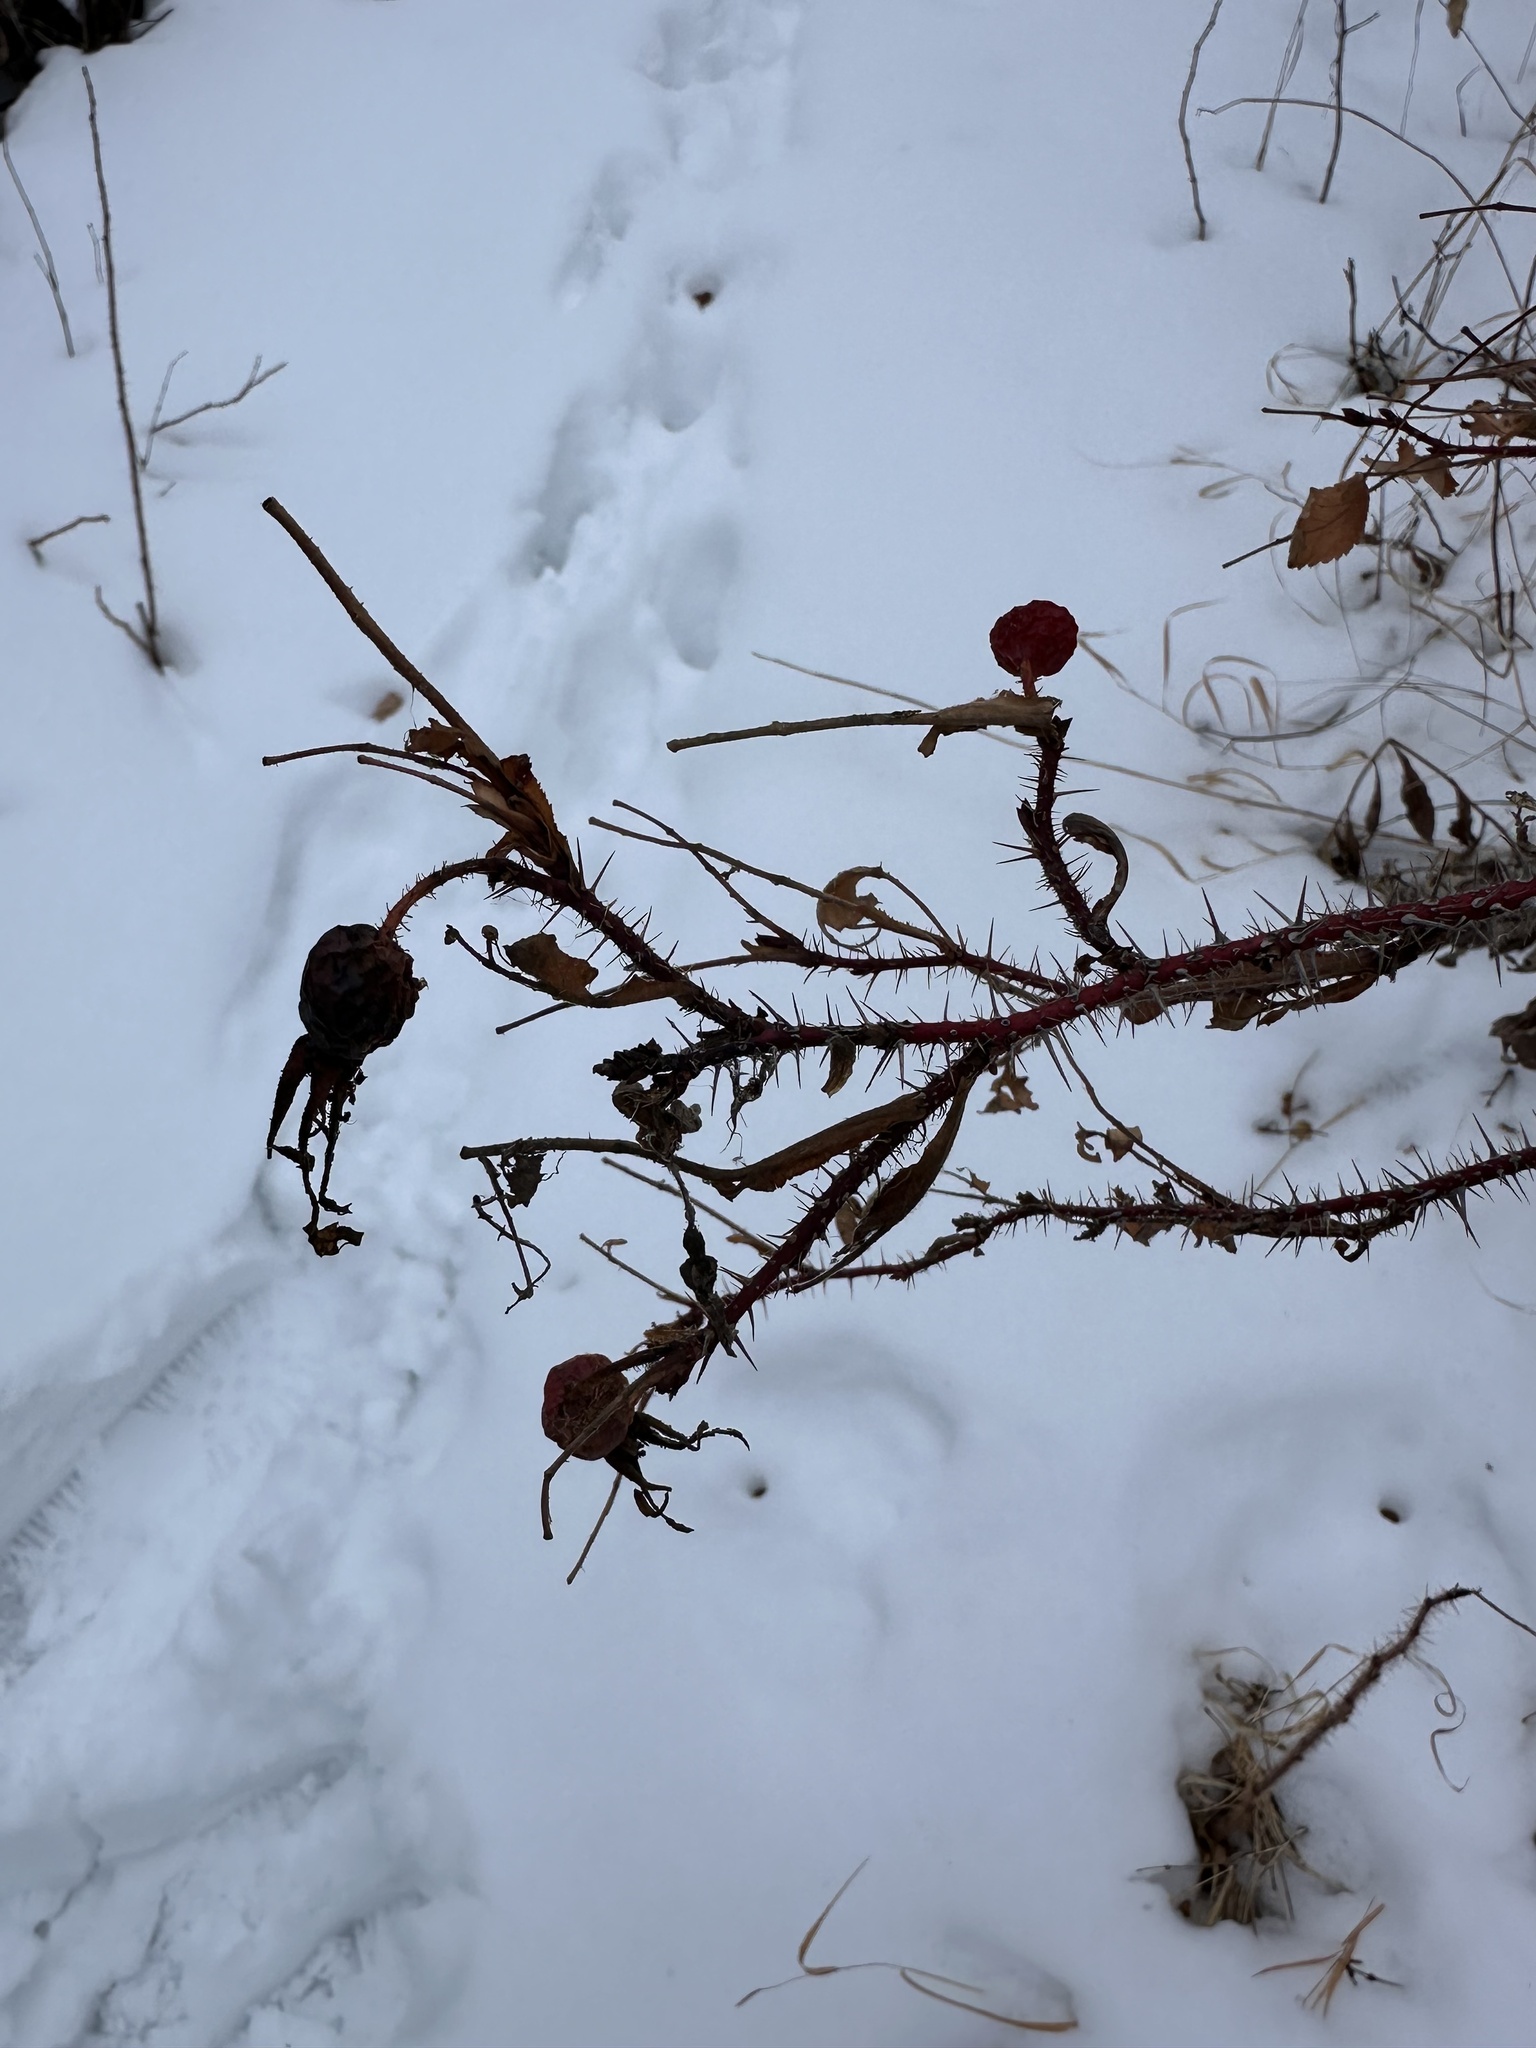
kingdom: Plantae
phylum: Tracheophyta
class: Magnoliopsida
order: Rosales
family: Rosaceae
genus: Rosa
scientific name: Rosa acicularis
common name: Prickly rose
